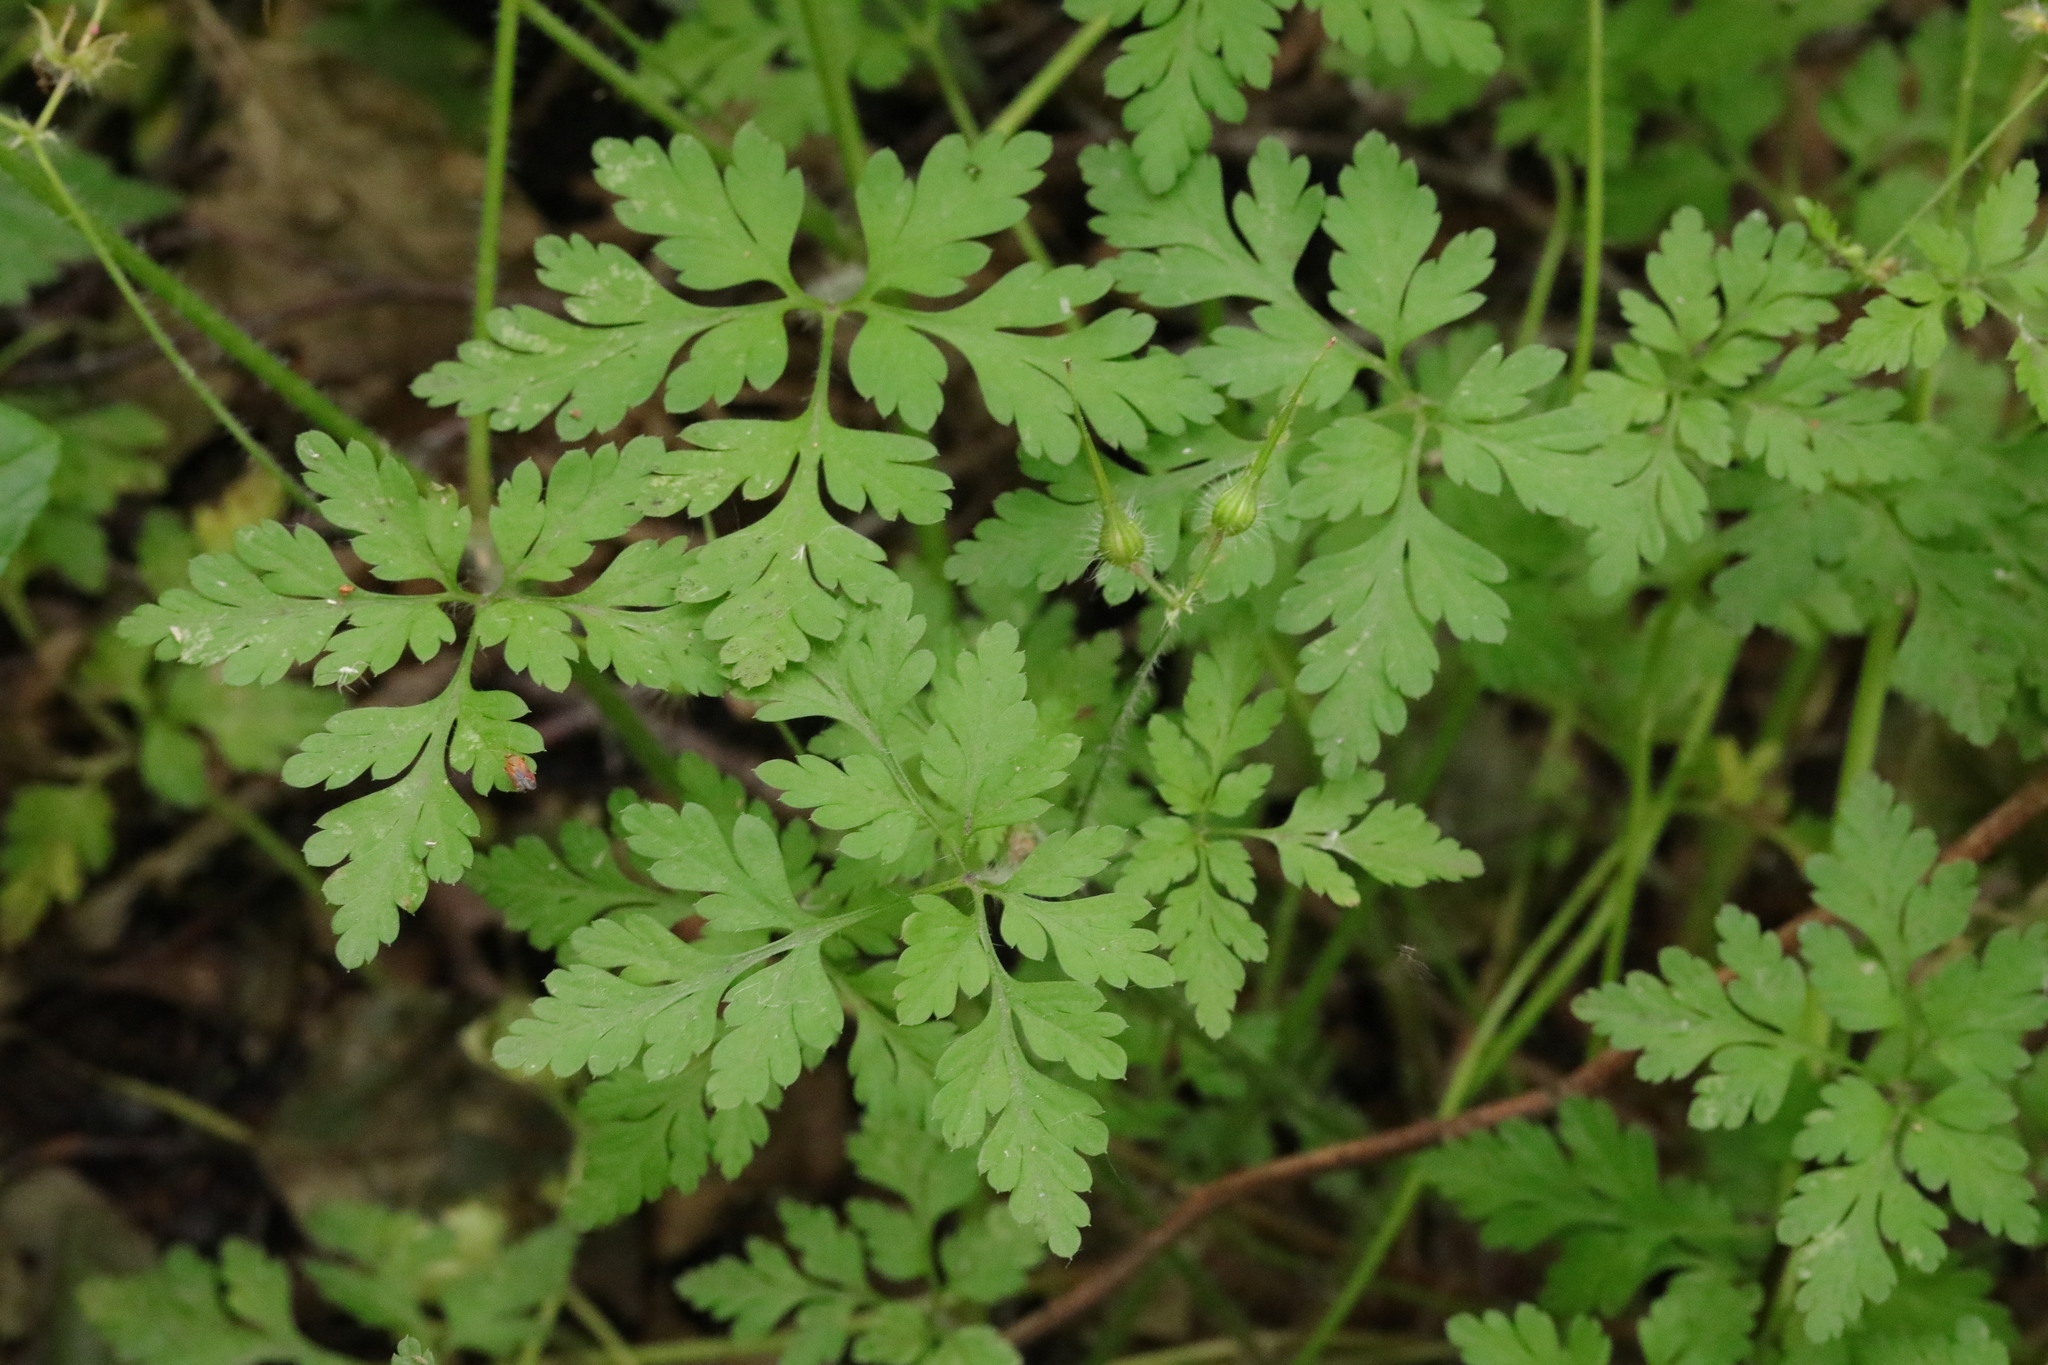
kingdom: Plantae
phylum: Tracheophyta
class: Magnoliopsida
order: Geraniales
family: Geraniaceae
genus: Geranium
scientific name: Geranium robertianum
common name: Herb-robert
